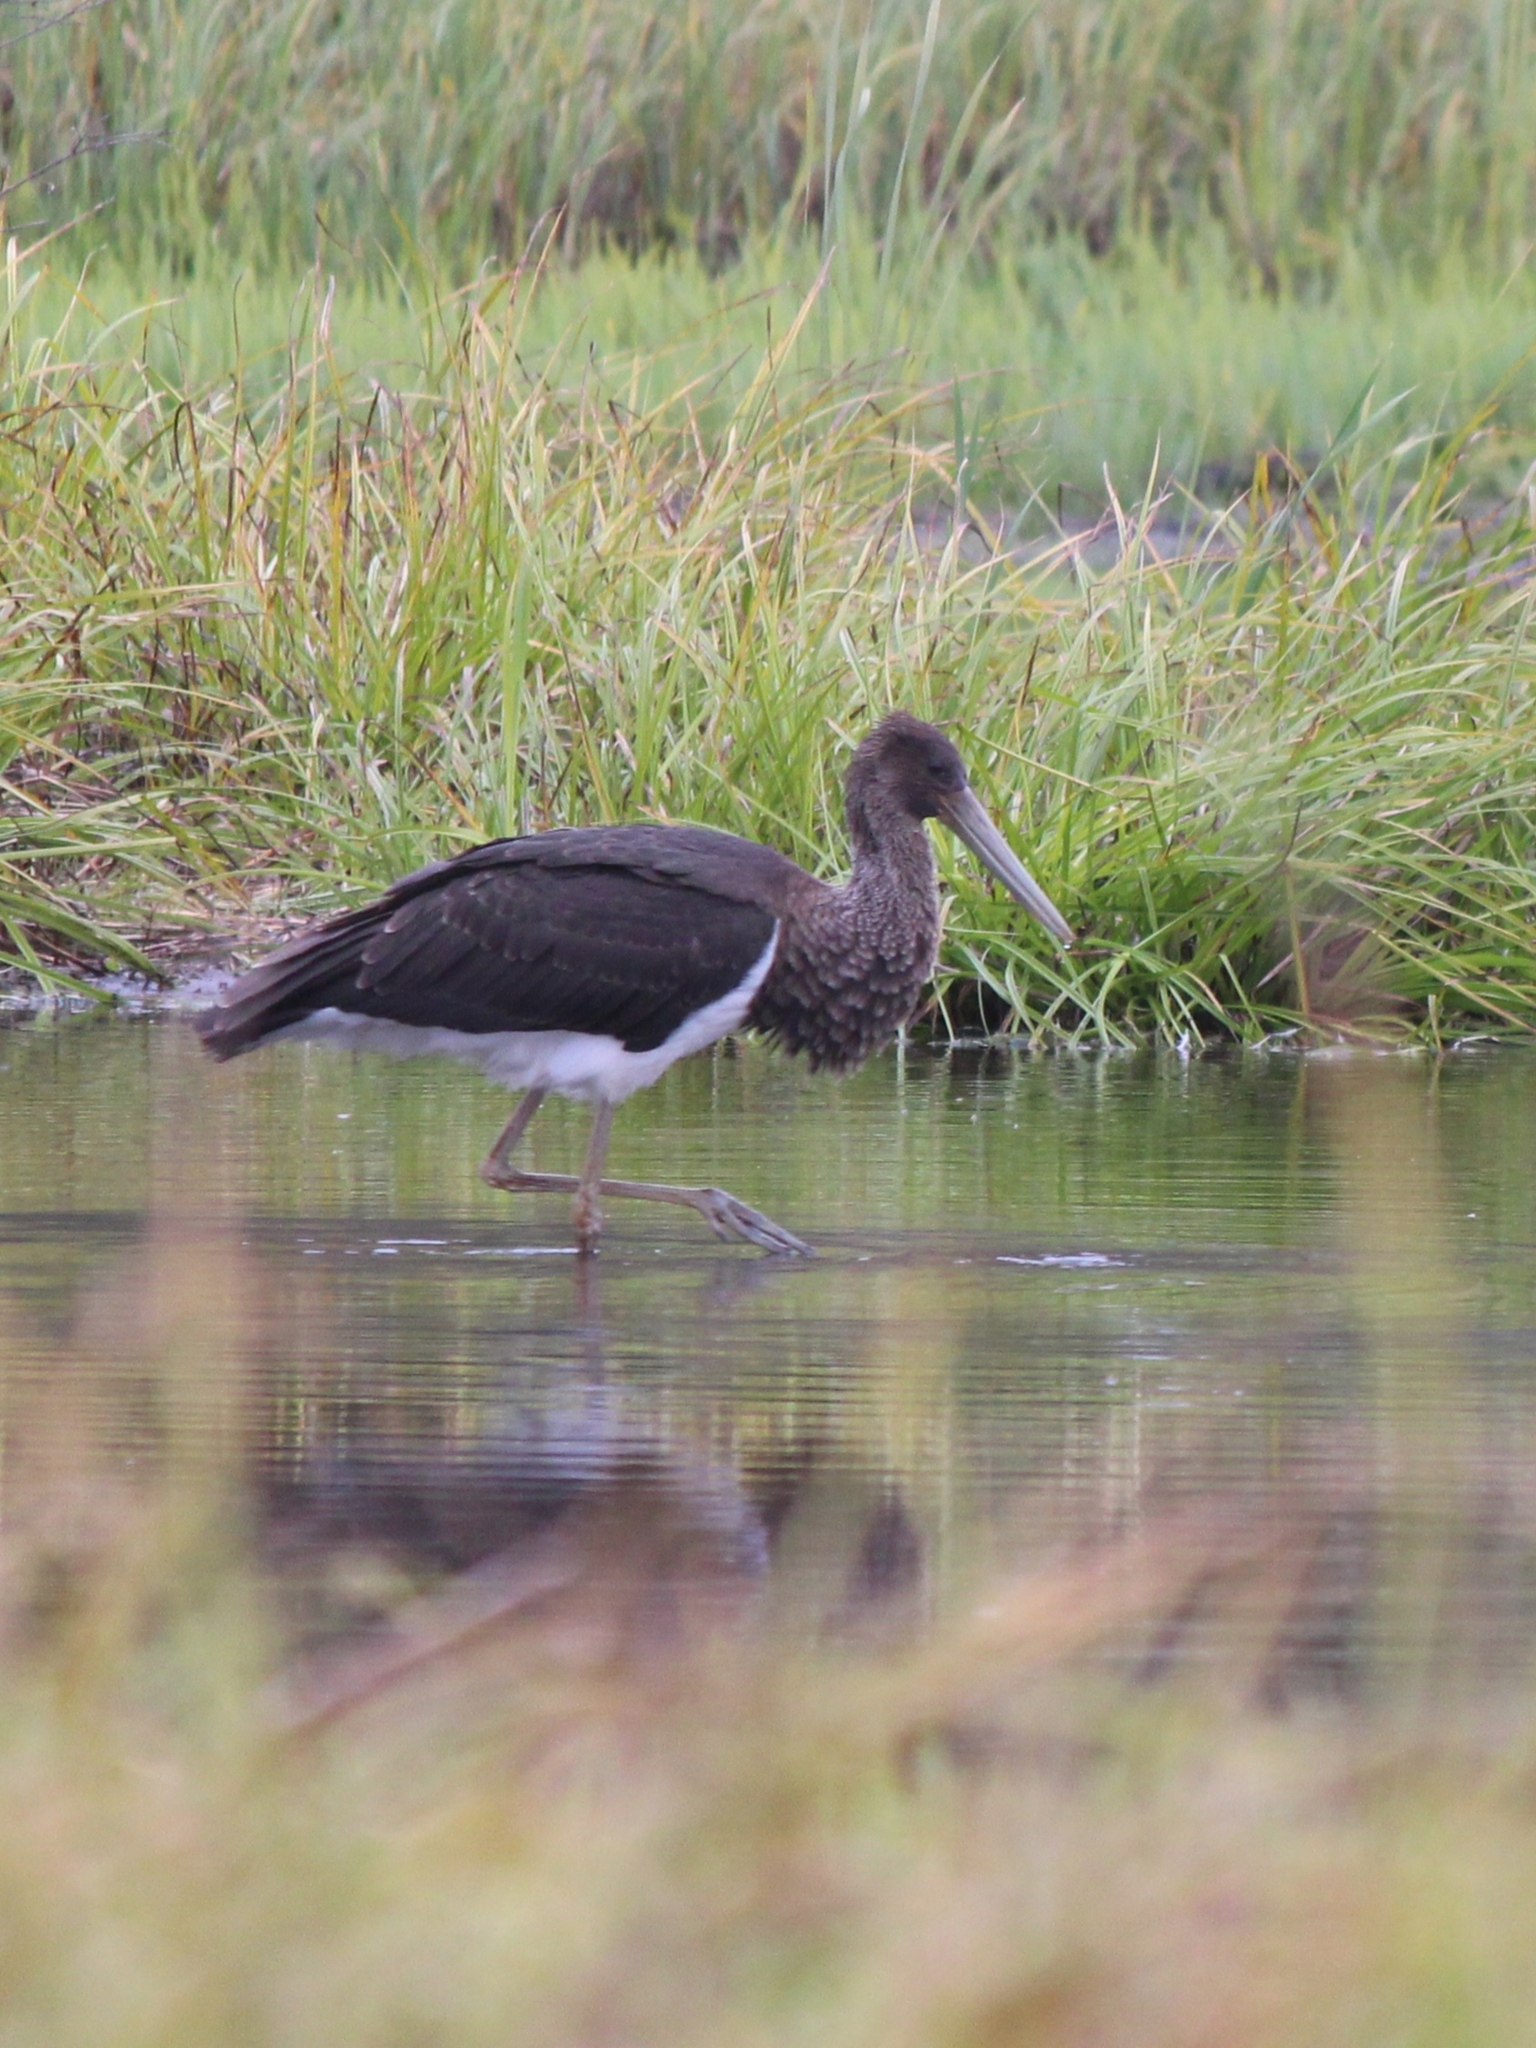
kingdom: Animalia
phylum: Chordata
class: Aves
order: Ciconiiformes
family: Ciconiidae
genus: Ciconia
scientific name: Ciconia nigra
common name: Black stork
